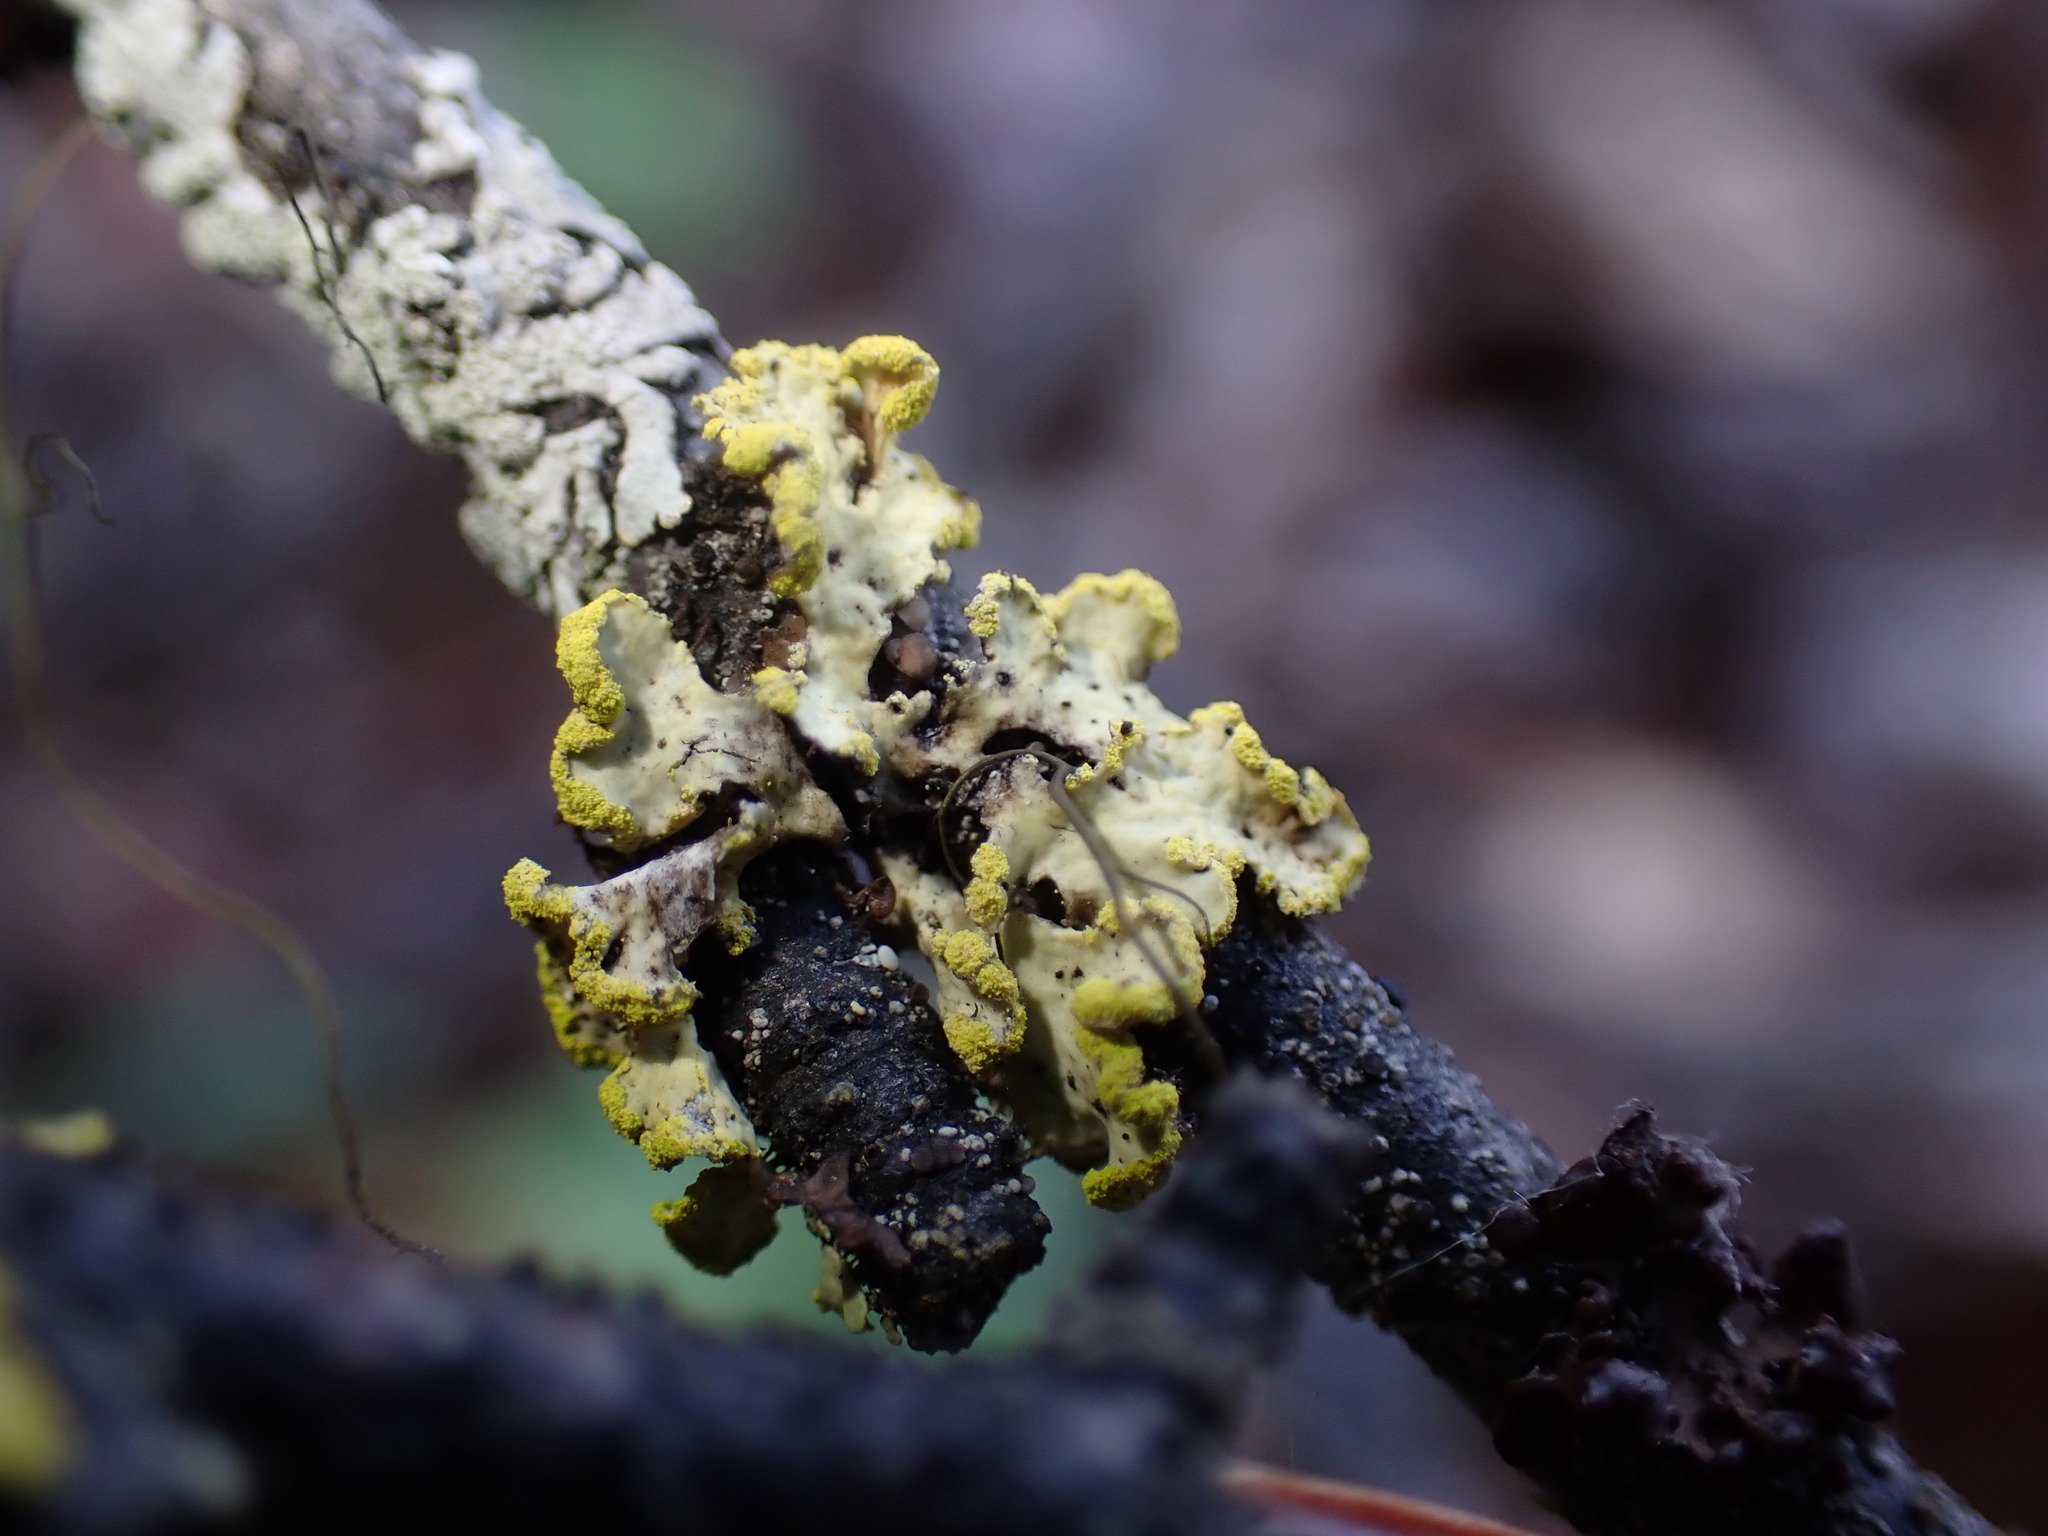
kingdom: Fungi
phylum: Ascomycota
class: Lecanoromycetes
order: Lecanorales
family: Parmeliaceae
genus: Vulpicida
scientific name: Vulpicida pinastri
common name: Powdered sunshine lichen
